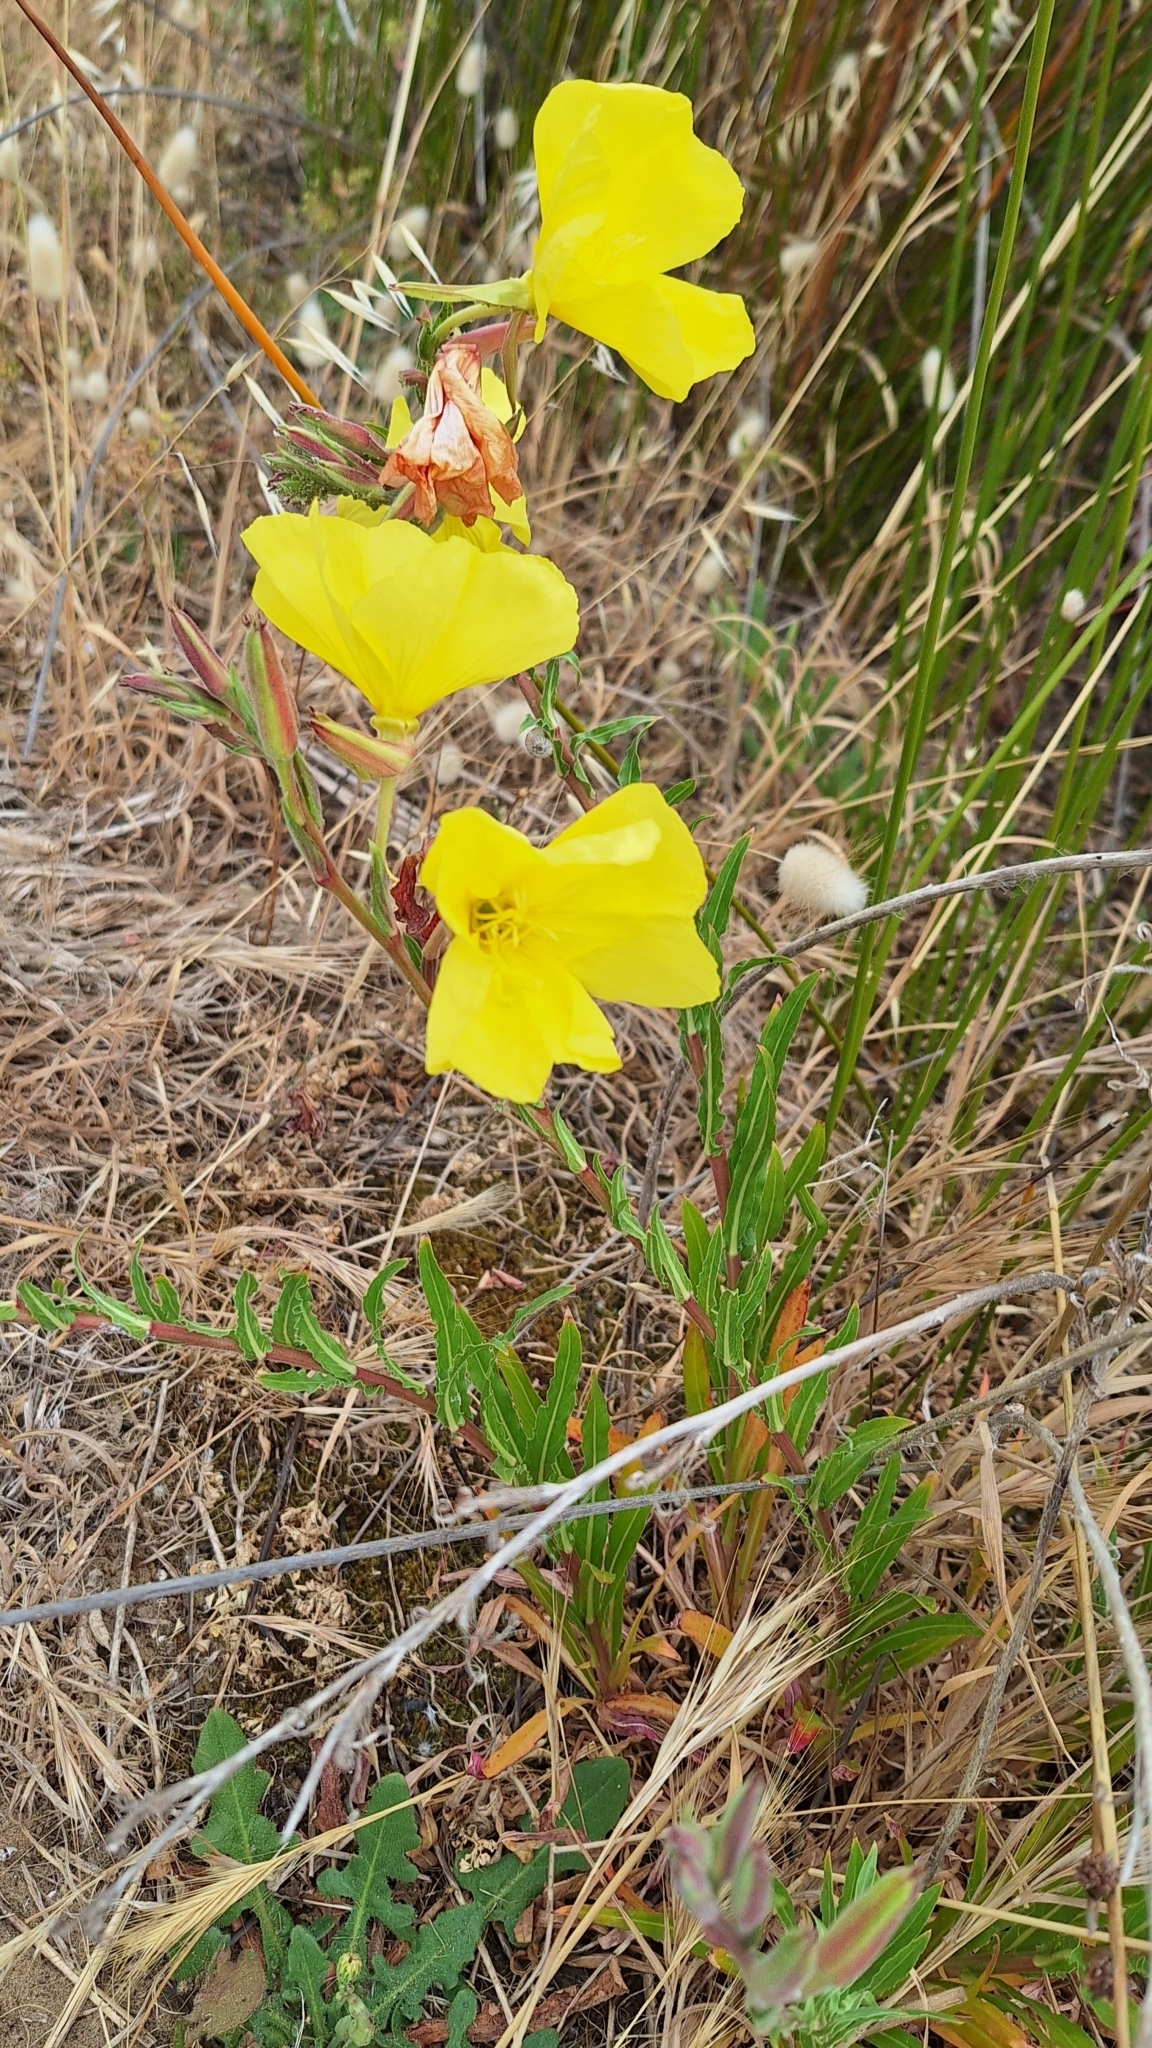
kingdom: Plantae
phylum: Tracheophyta
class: Magnoliopsida
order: Myrtales
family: Onagraceae
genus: Oenothera
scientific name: Oenothera stricta
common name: Fragrant evening-primrose
